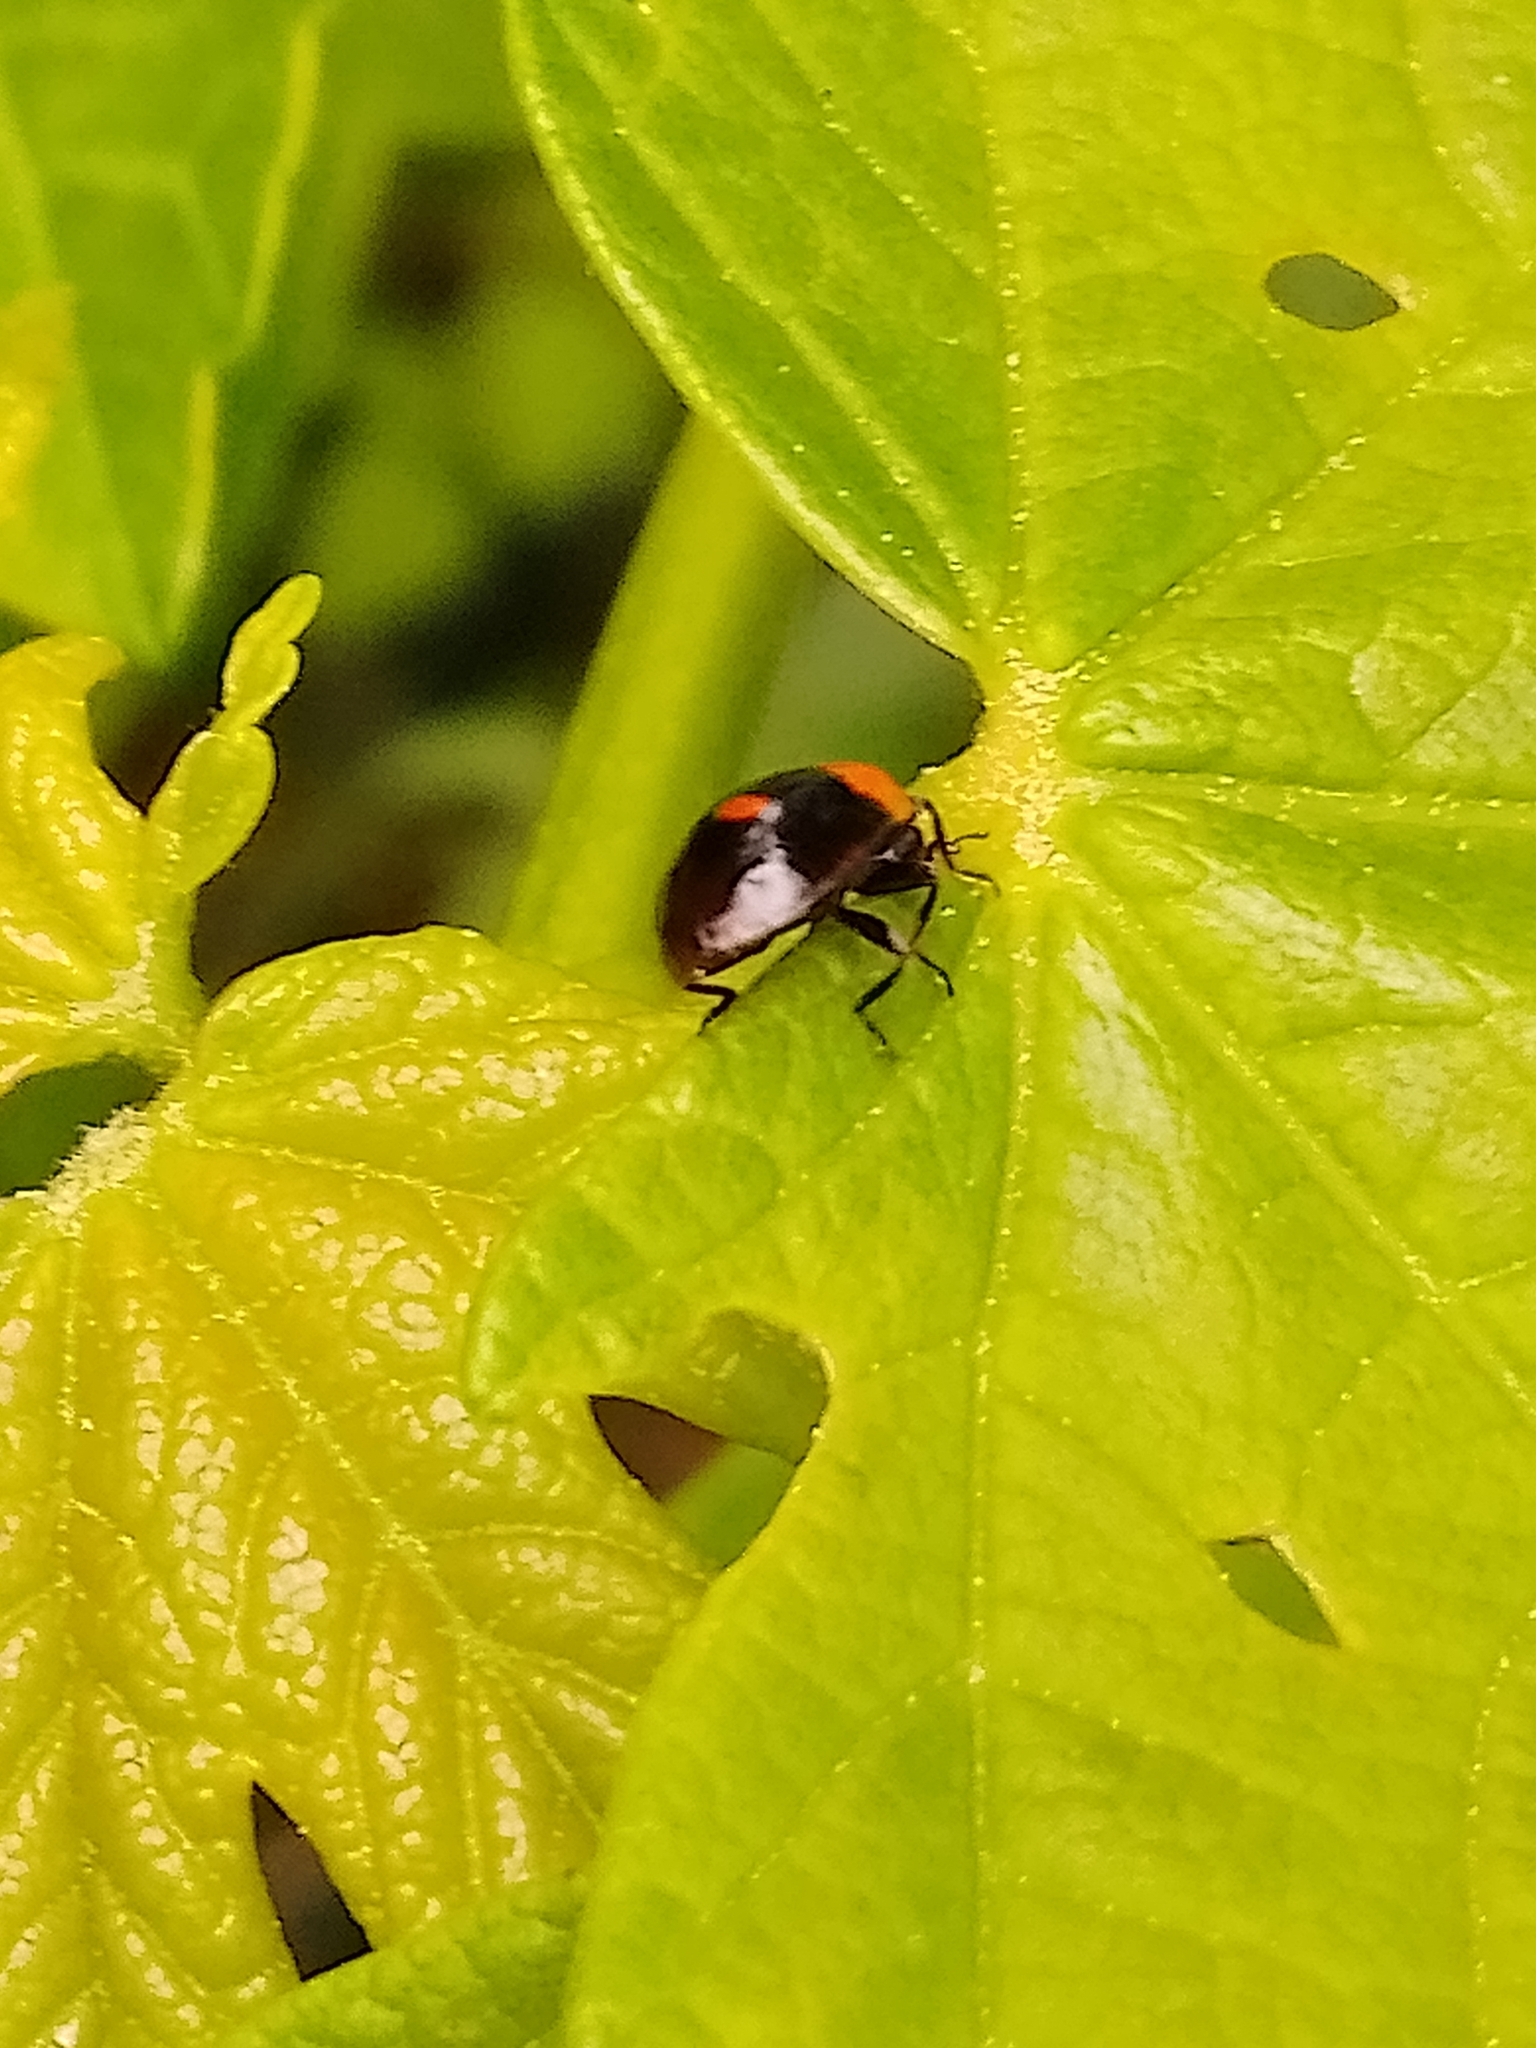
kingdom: Animalia
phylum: Arthropoda
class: Insecta
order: Coleoptera
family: Coccinellidae
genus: Adalia
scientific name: Adalia bipunctata
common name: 2-spot ladybird
